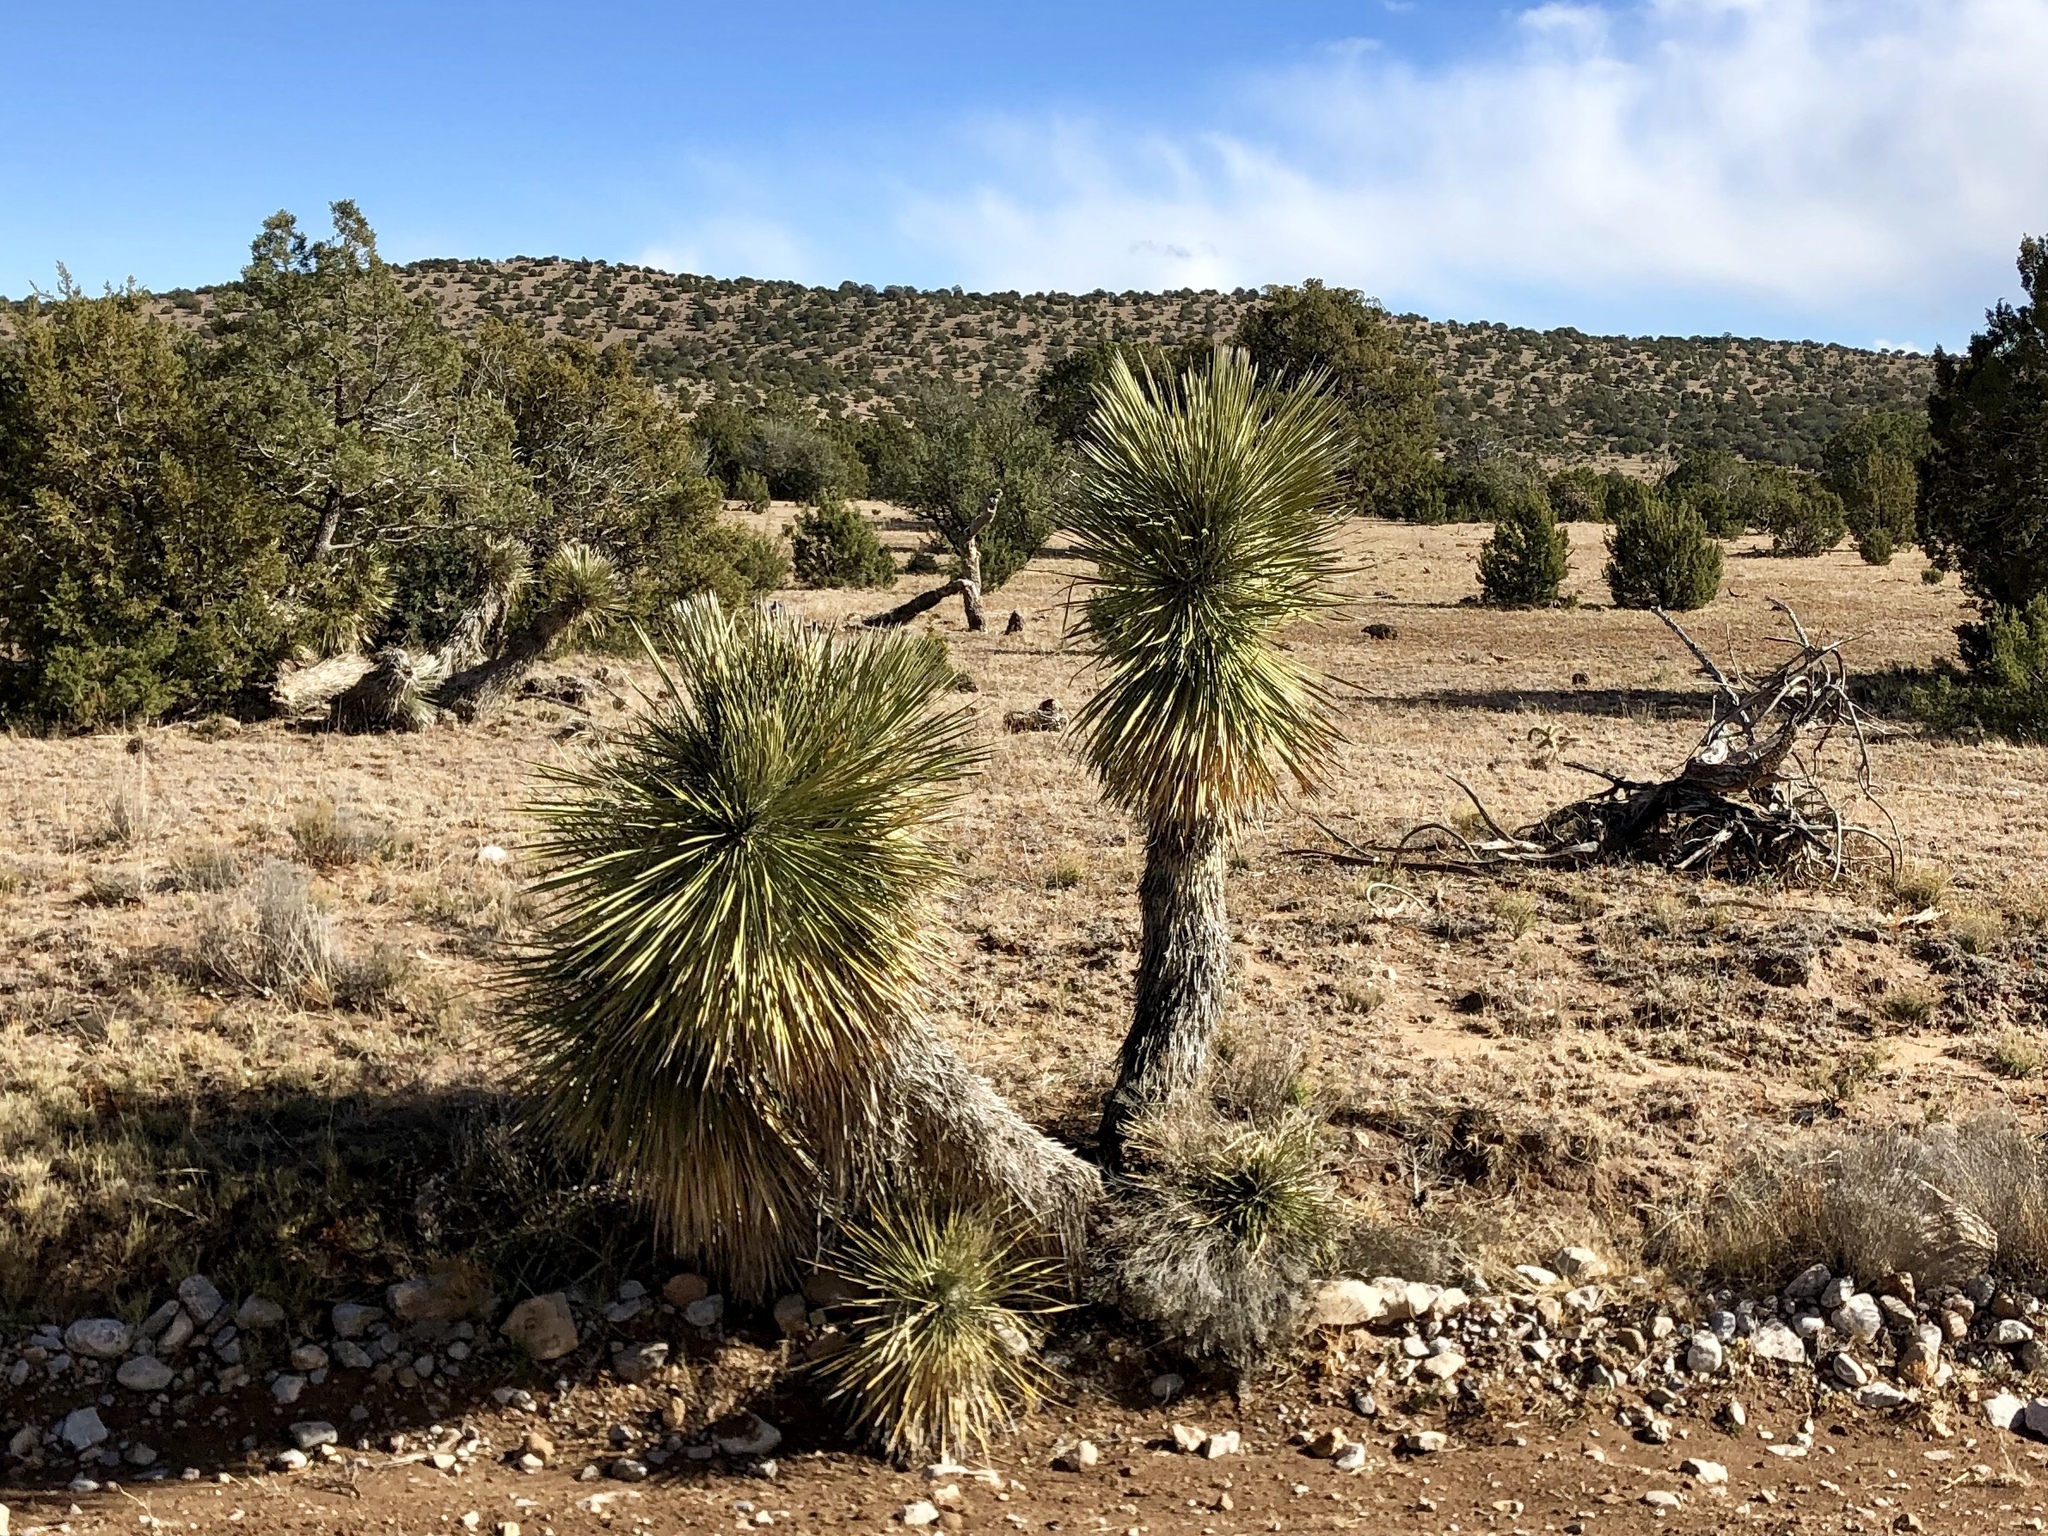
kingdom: Plantae
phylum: Tracheophyta
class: Liliopsida
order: Asparagales
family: Asparagaceae
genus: Yucca
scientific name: Yucca elata
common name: Palmella
